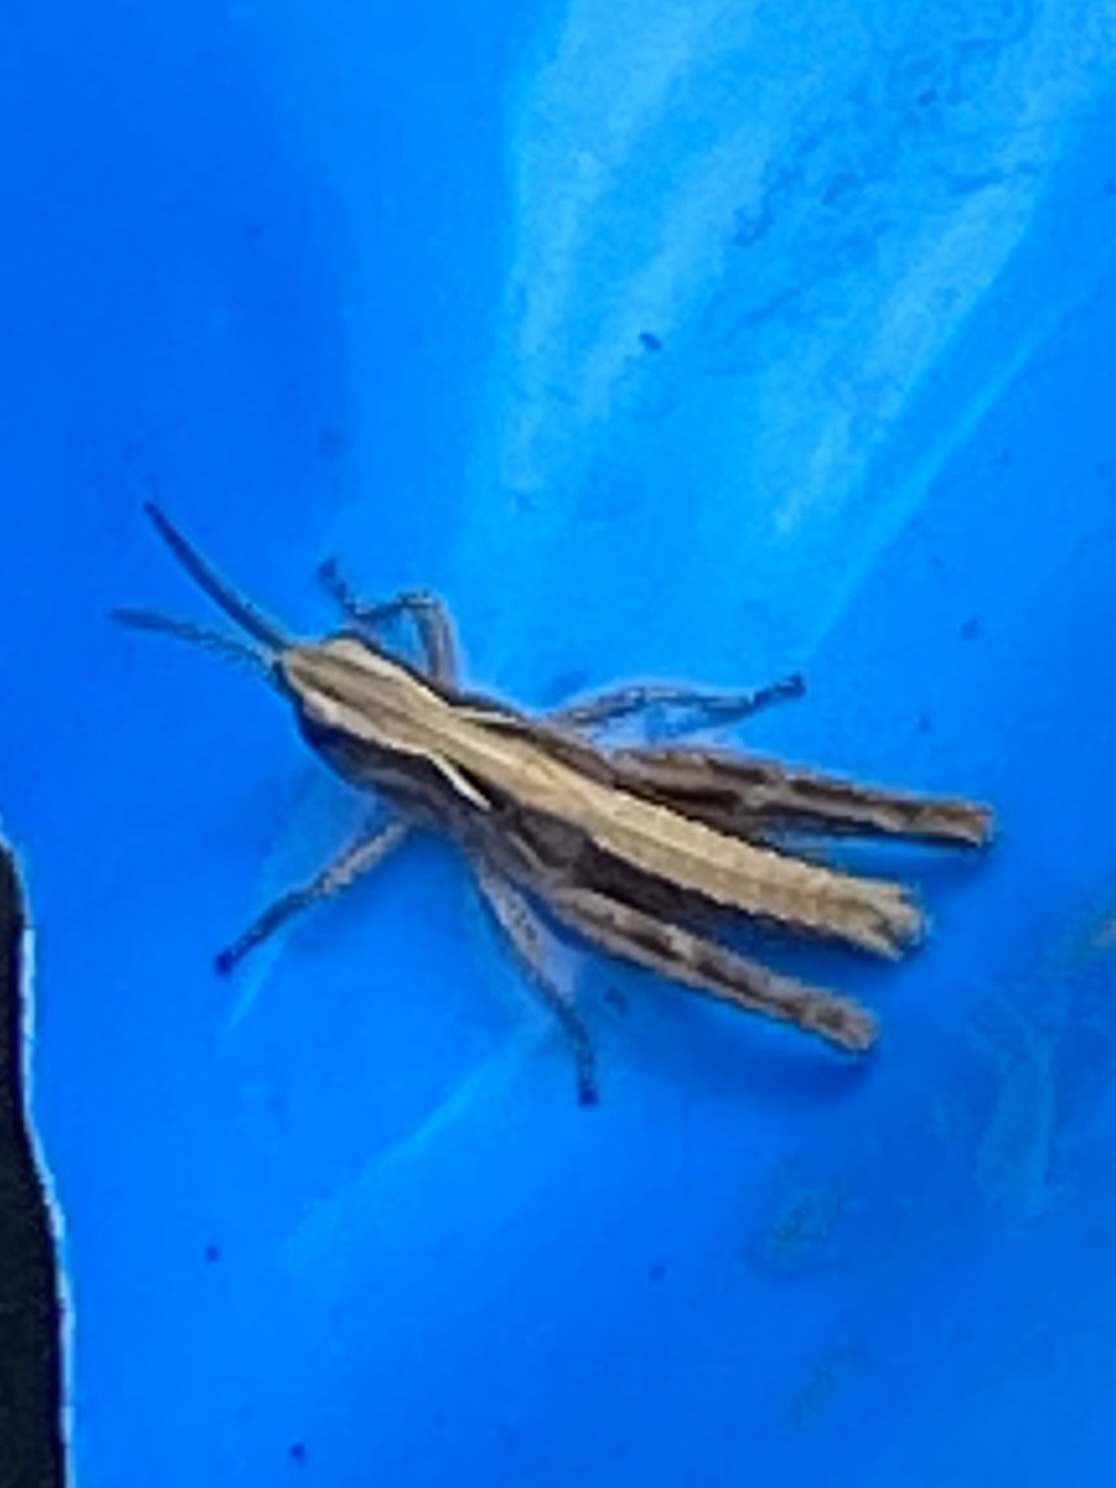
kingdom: Animalia
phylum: Arthropoda
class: Insecta
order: Orthoptera
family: Acrididae
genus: Chorthippus
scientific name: Chorthippus brunneus
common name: Field grasshopper
